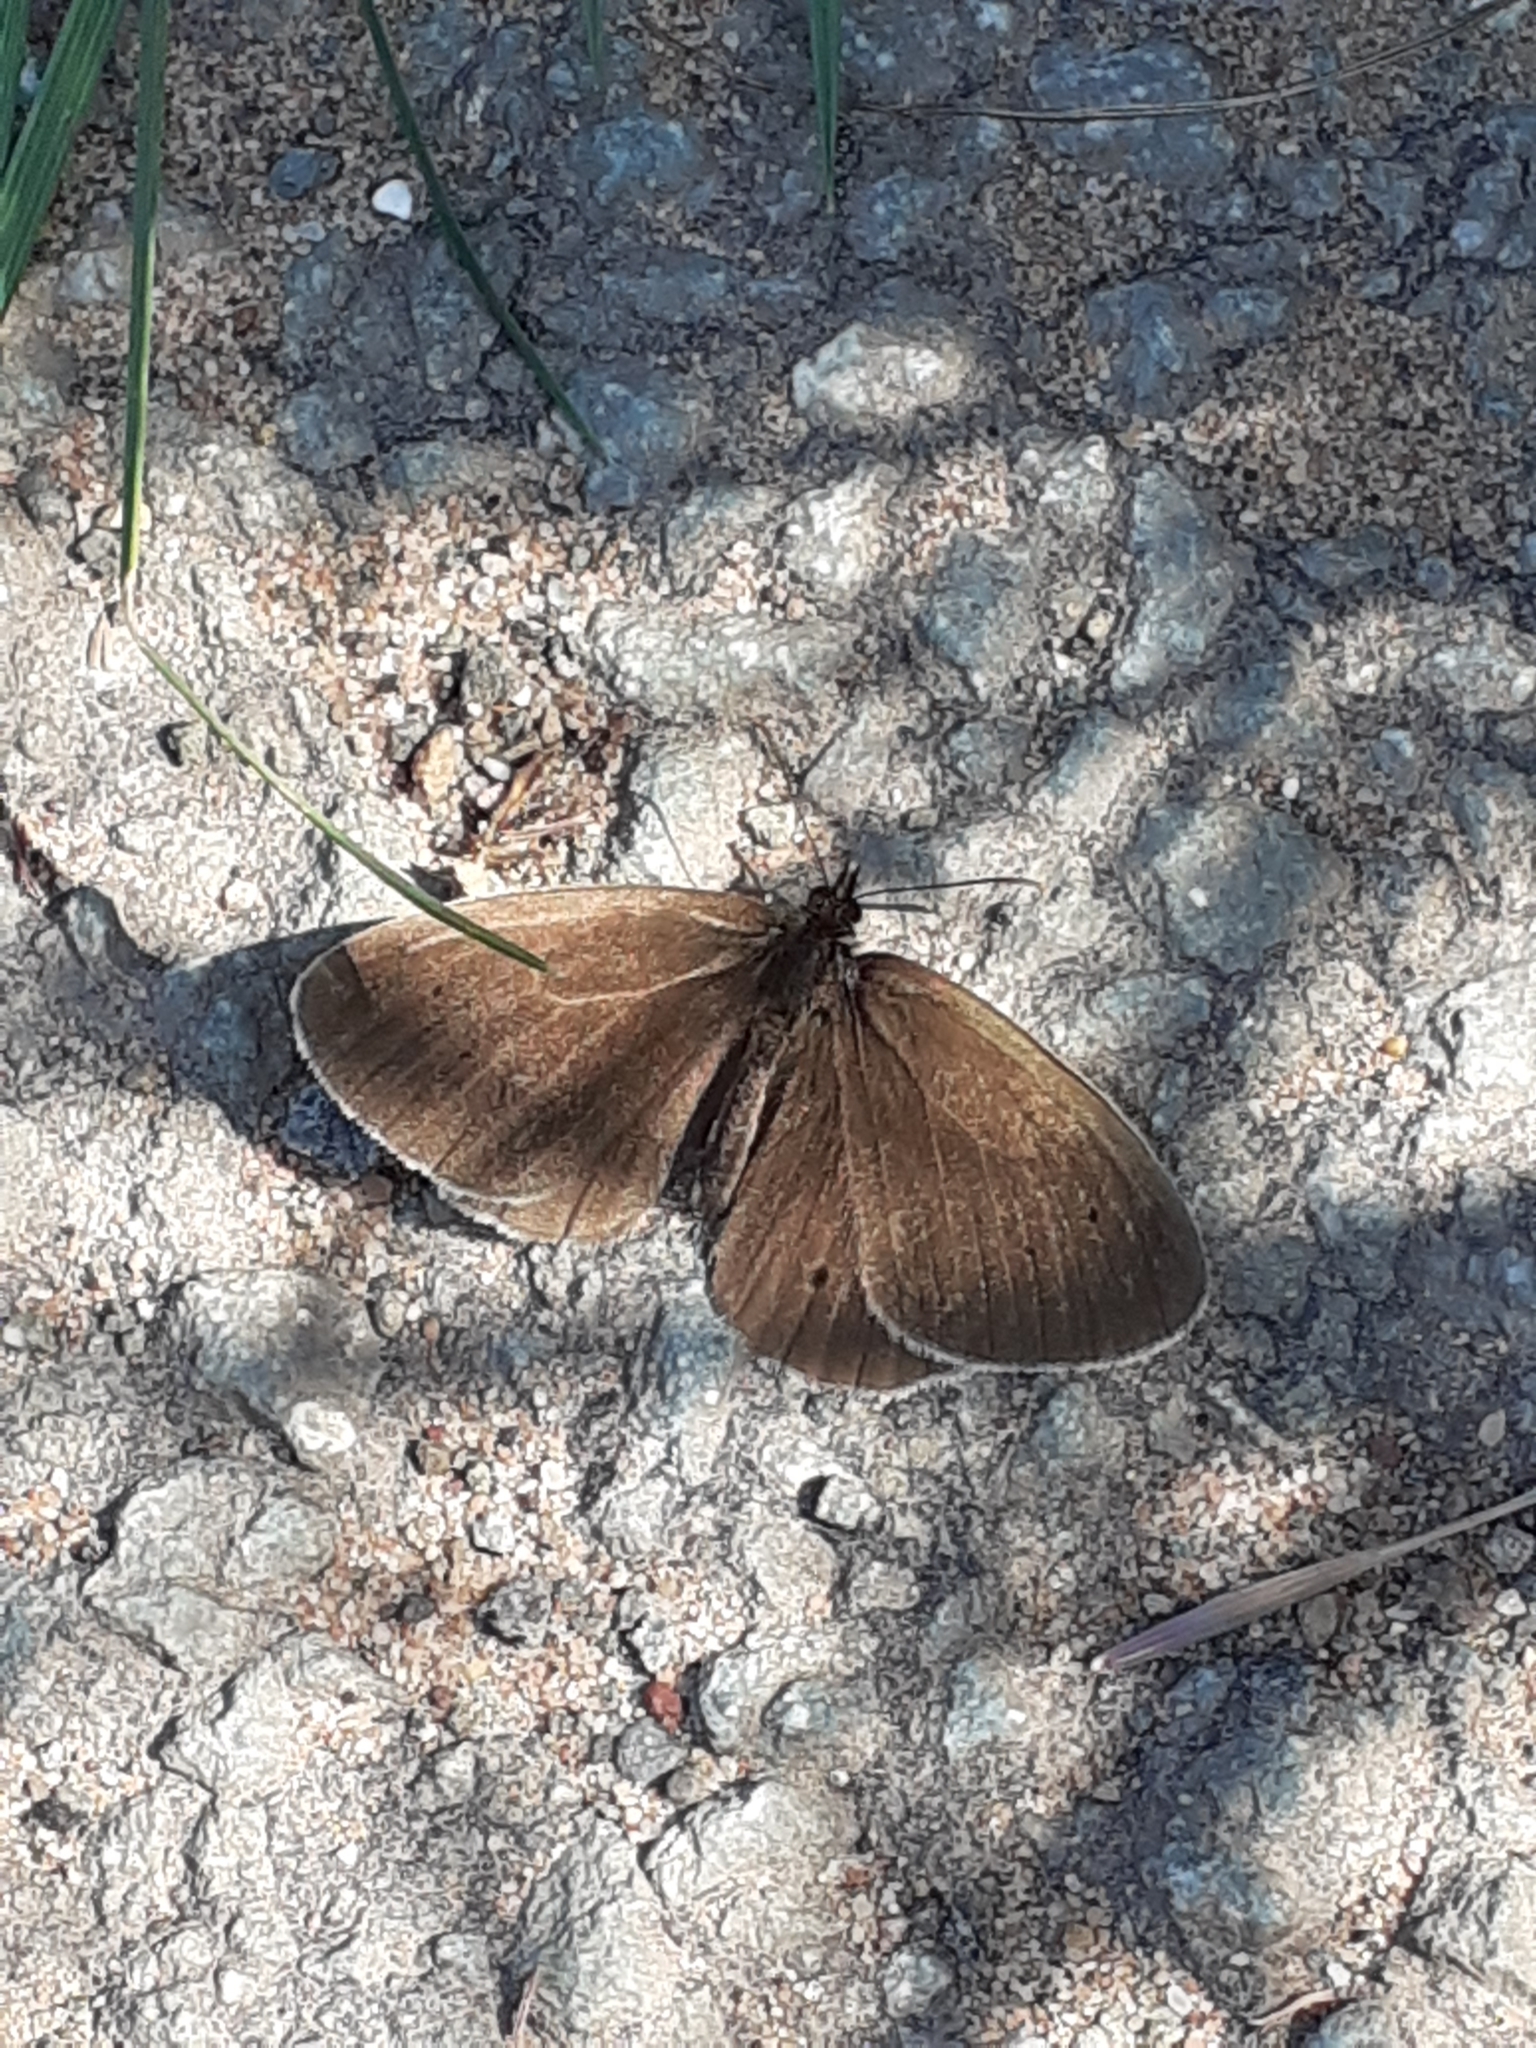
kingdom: Animalia
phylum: Arthropoda
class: Insecta
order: Lepidoptera
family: Nymphalidae
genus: Aphantopus
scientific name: Aphantopus hyperantus
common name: Ringlet
